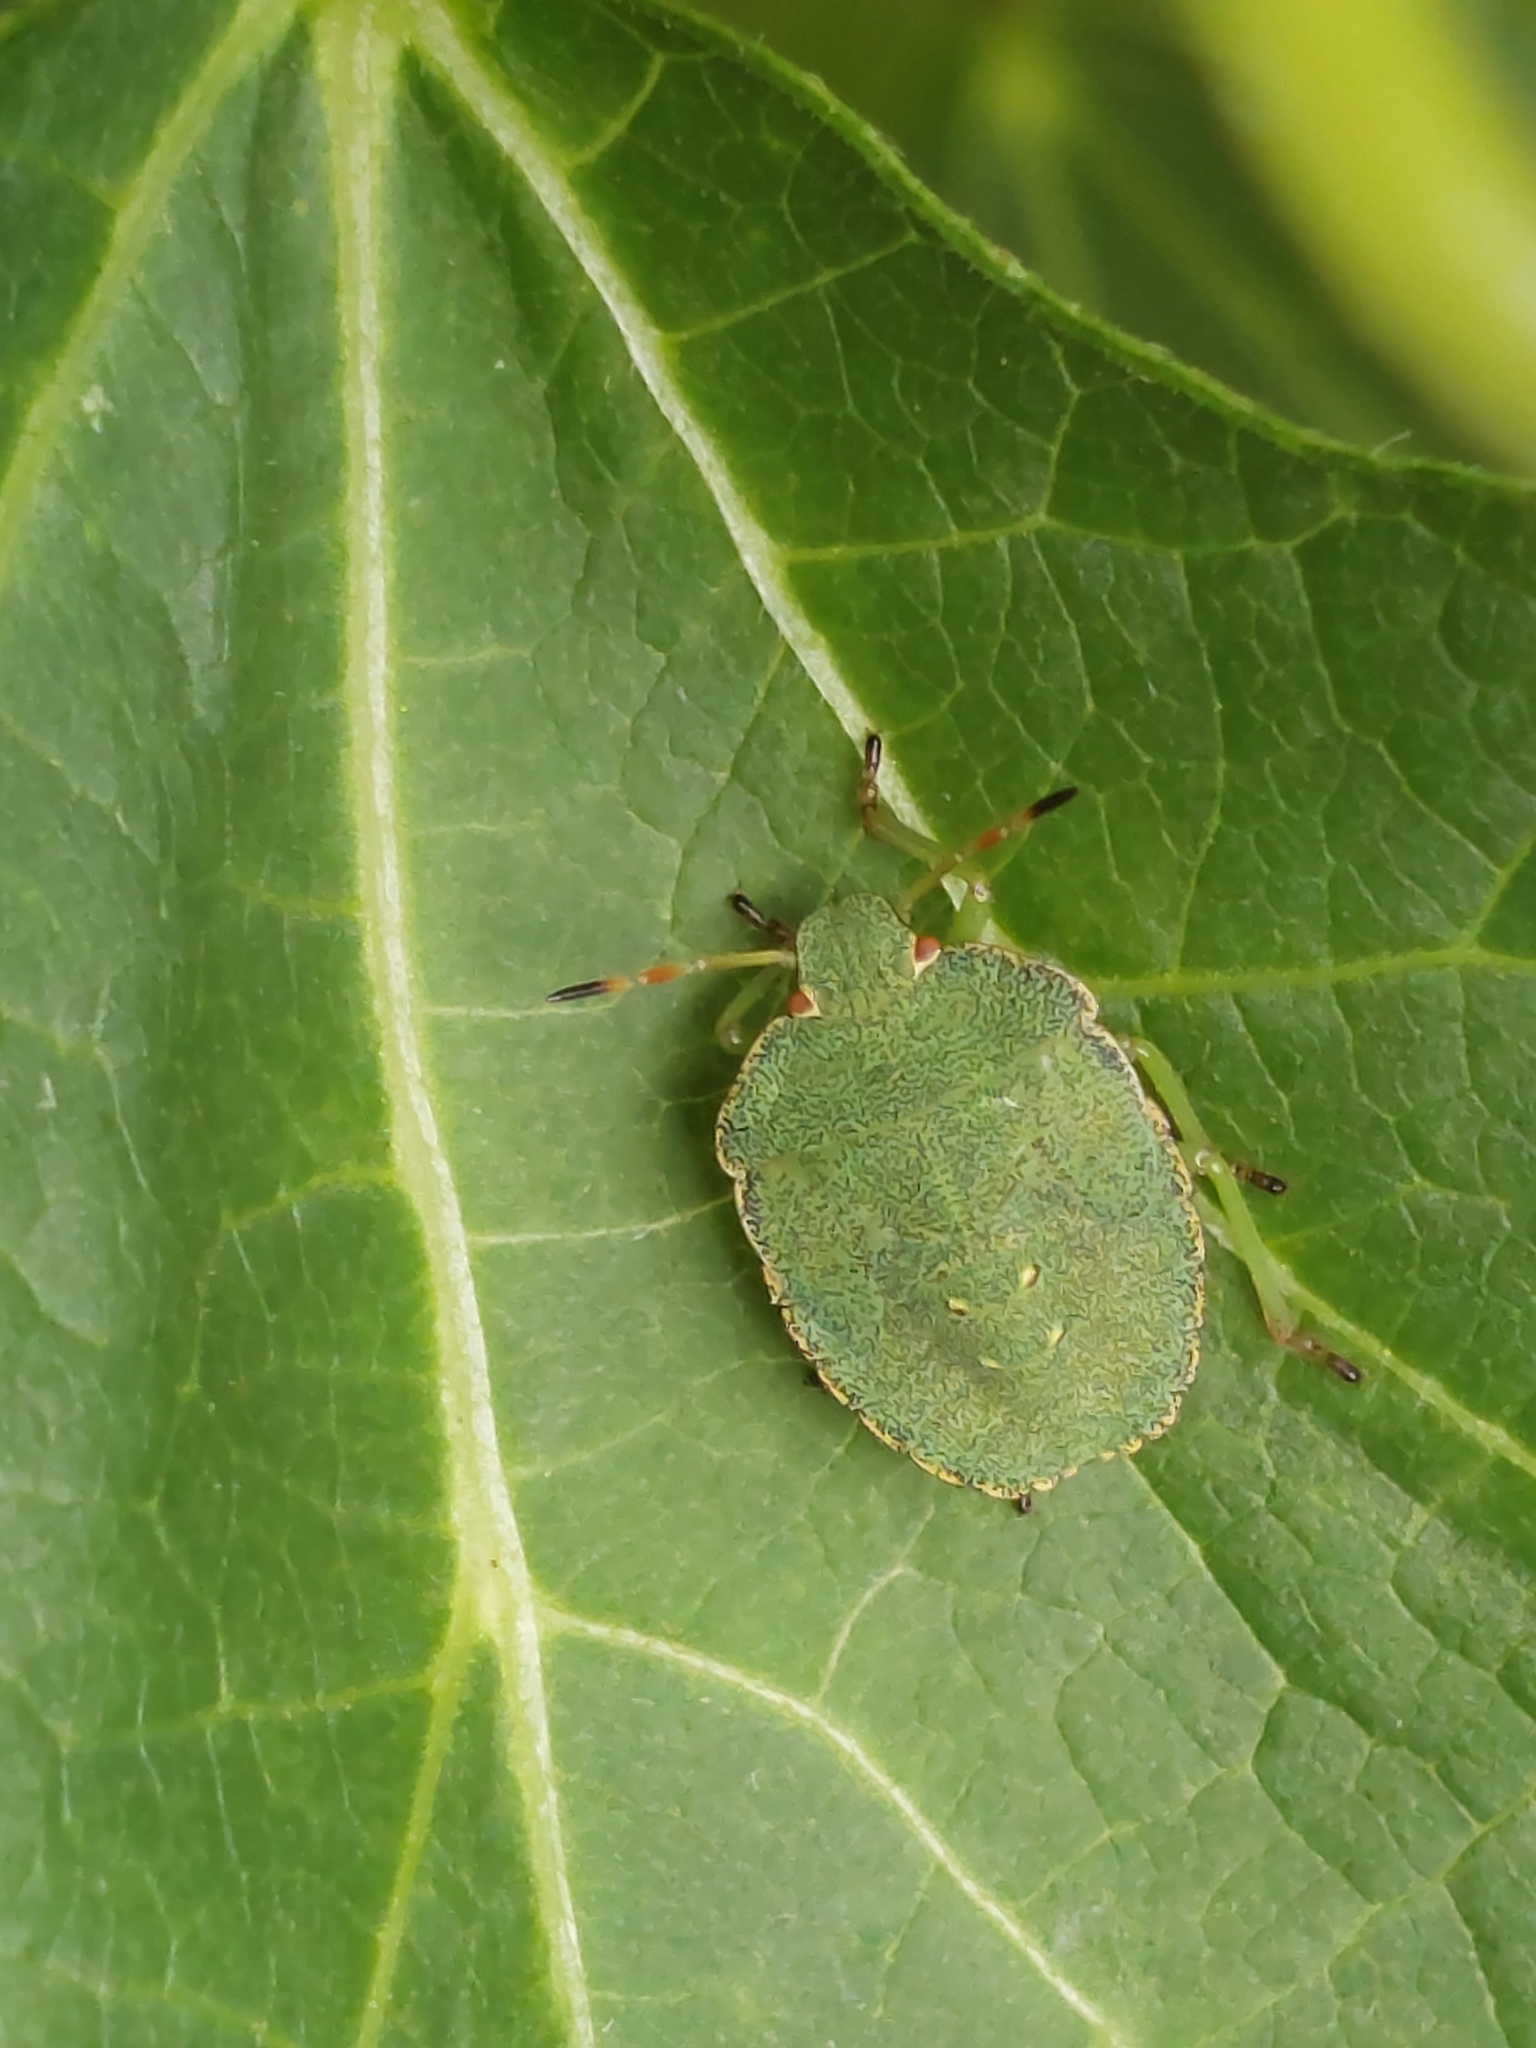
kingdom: Animalia
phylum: Arthropoda
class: Insecta
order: Hemiptera
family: Pentatomidae
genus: Palomena
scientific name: Palomena prasina
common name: Green shieldbug
